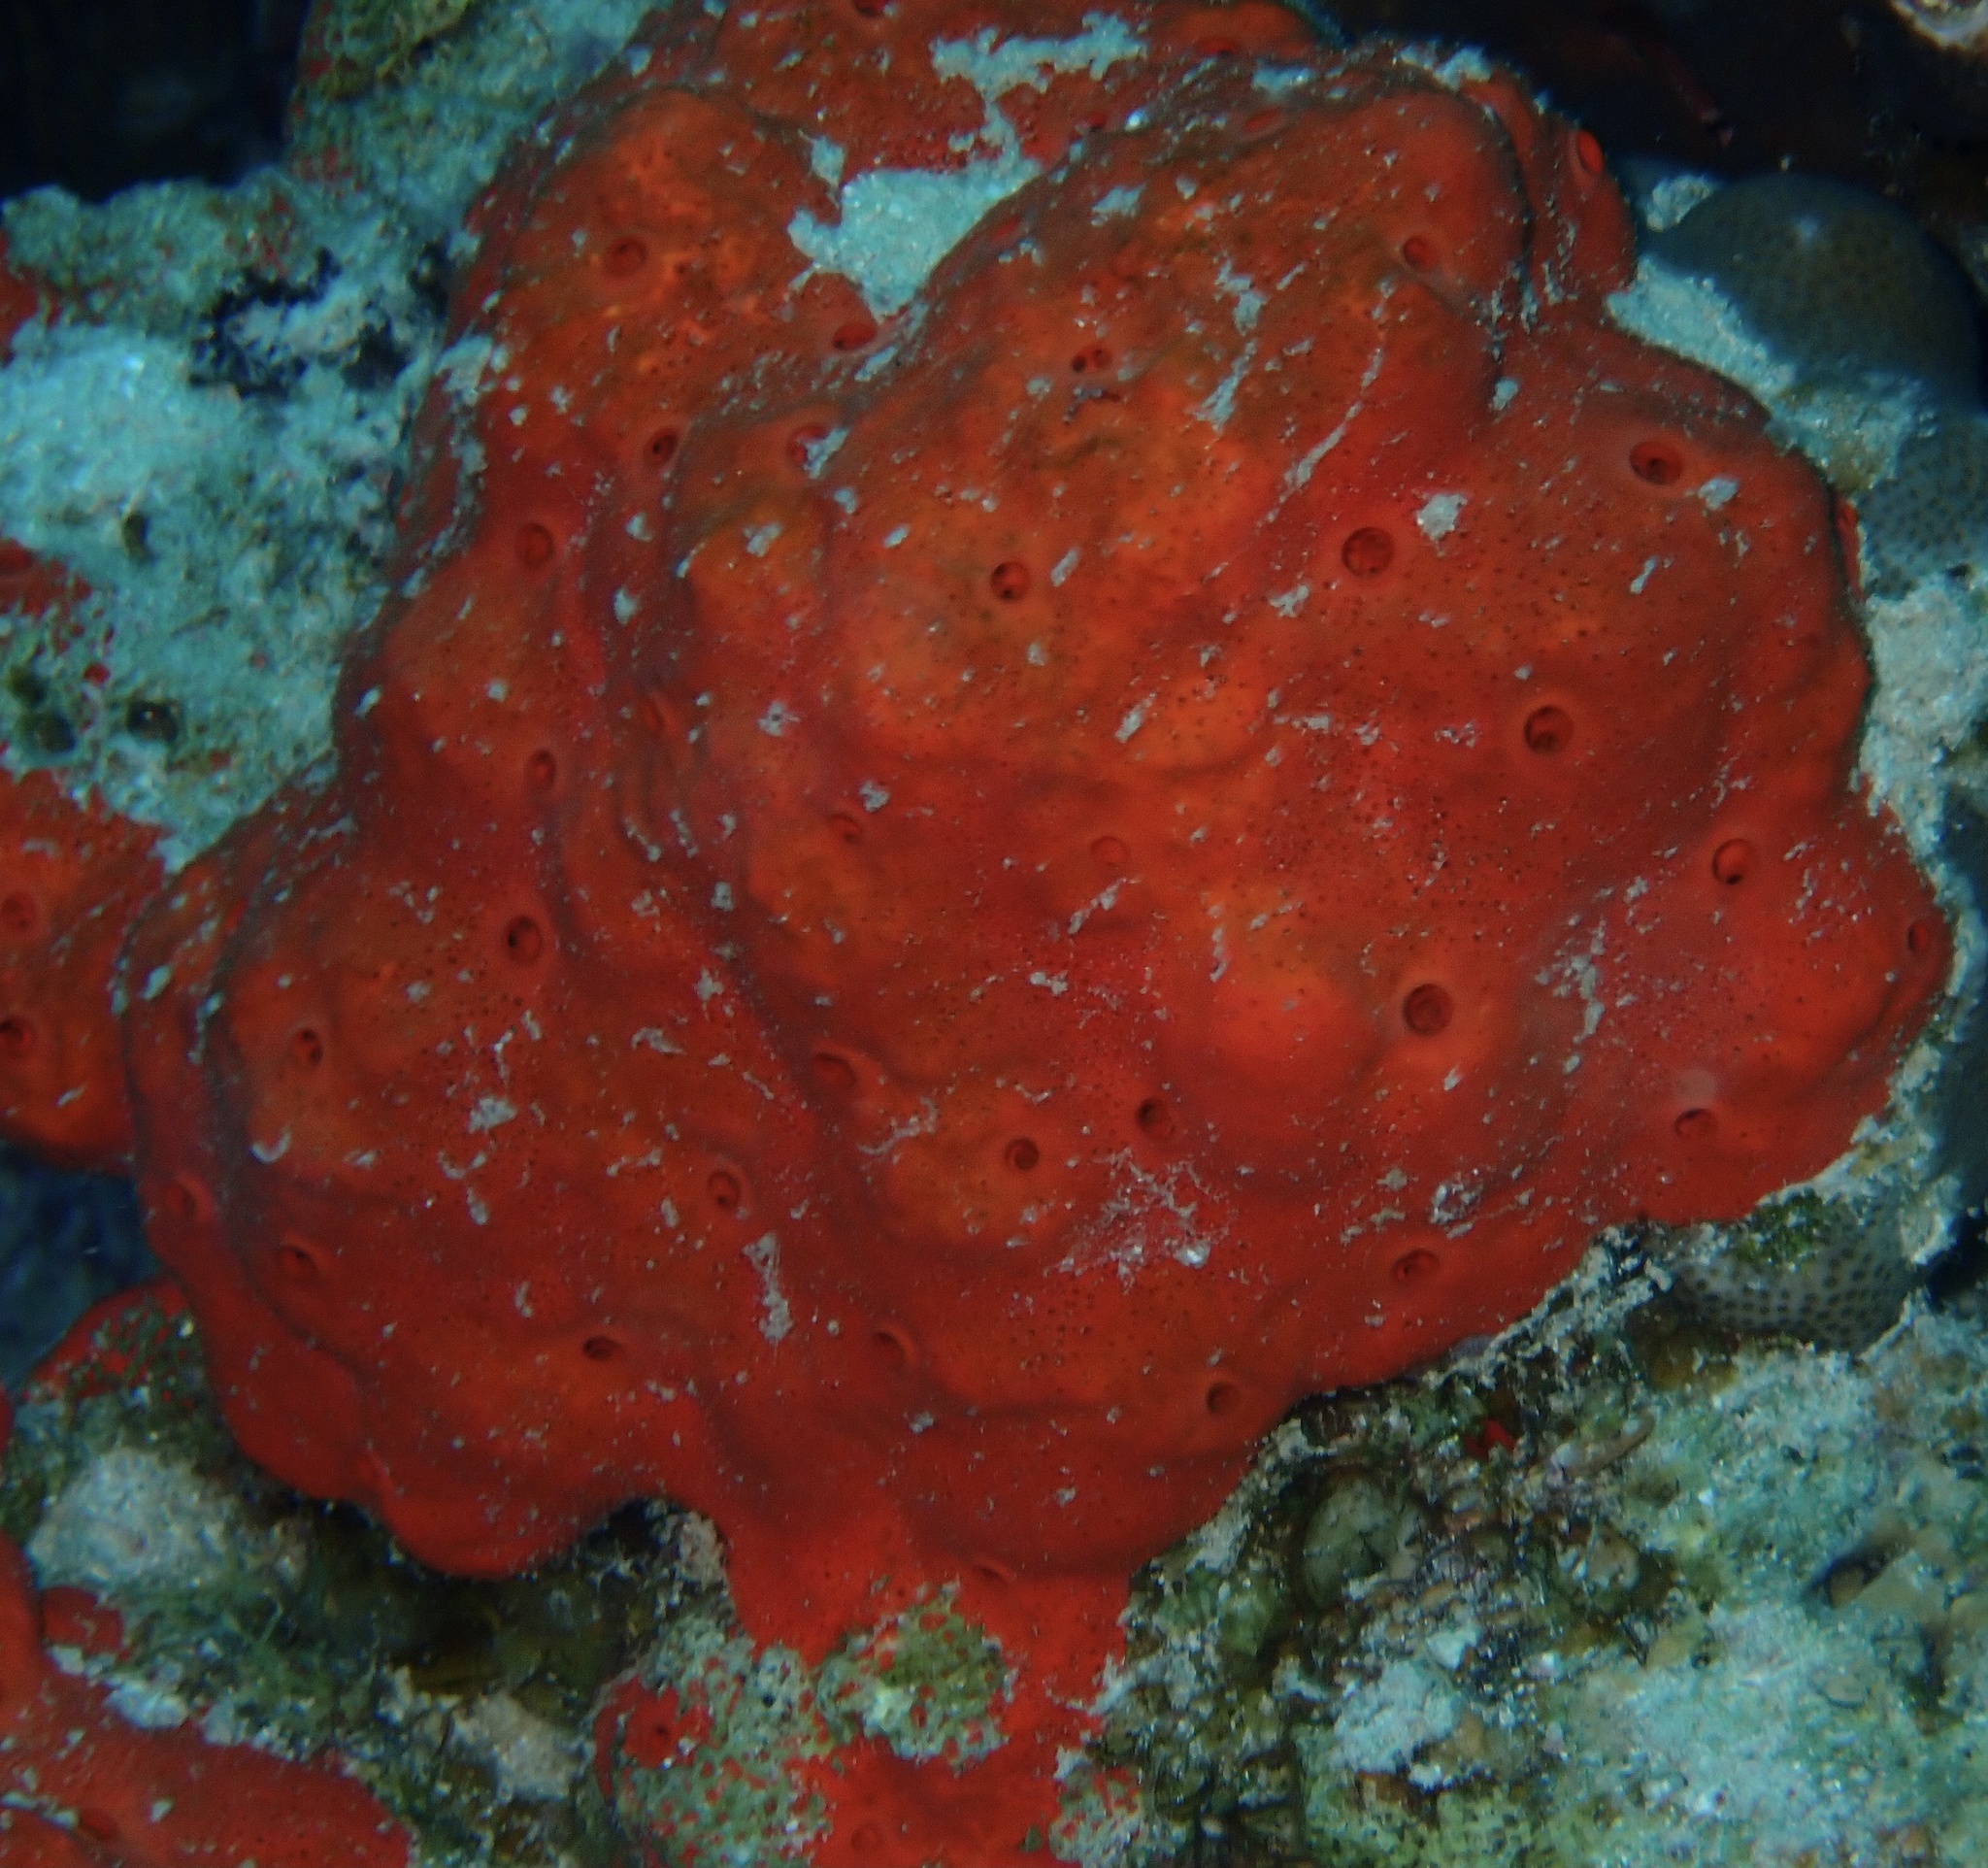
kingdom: Animalia
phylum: Porifera
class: Demospongiae
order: Clionaida
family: Clionaidae
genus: Pione
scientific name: Pione mussae
